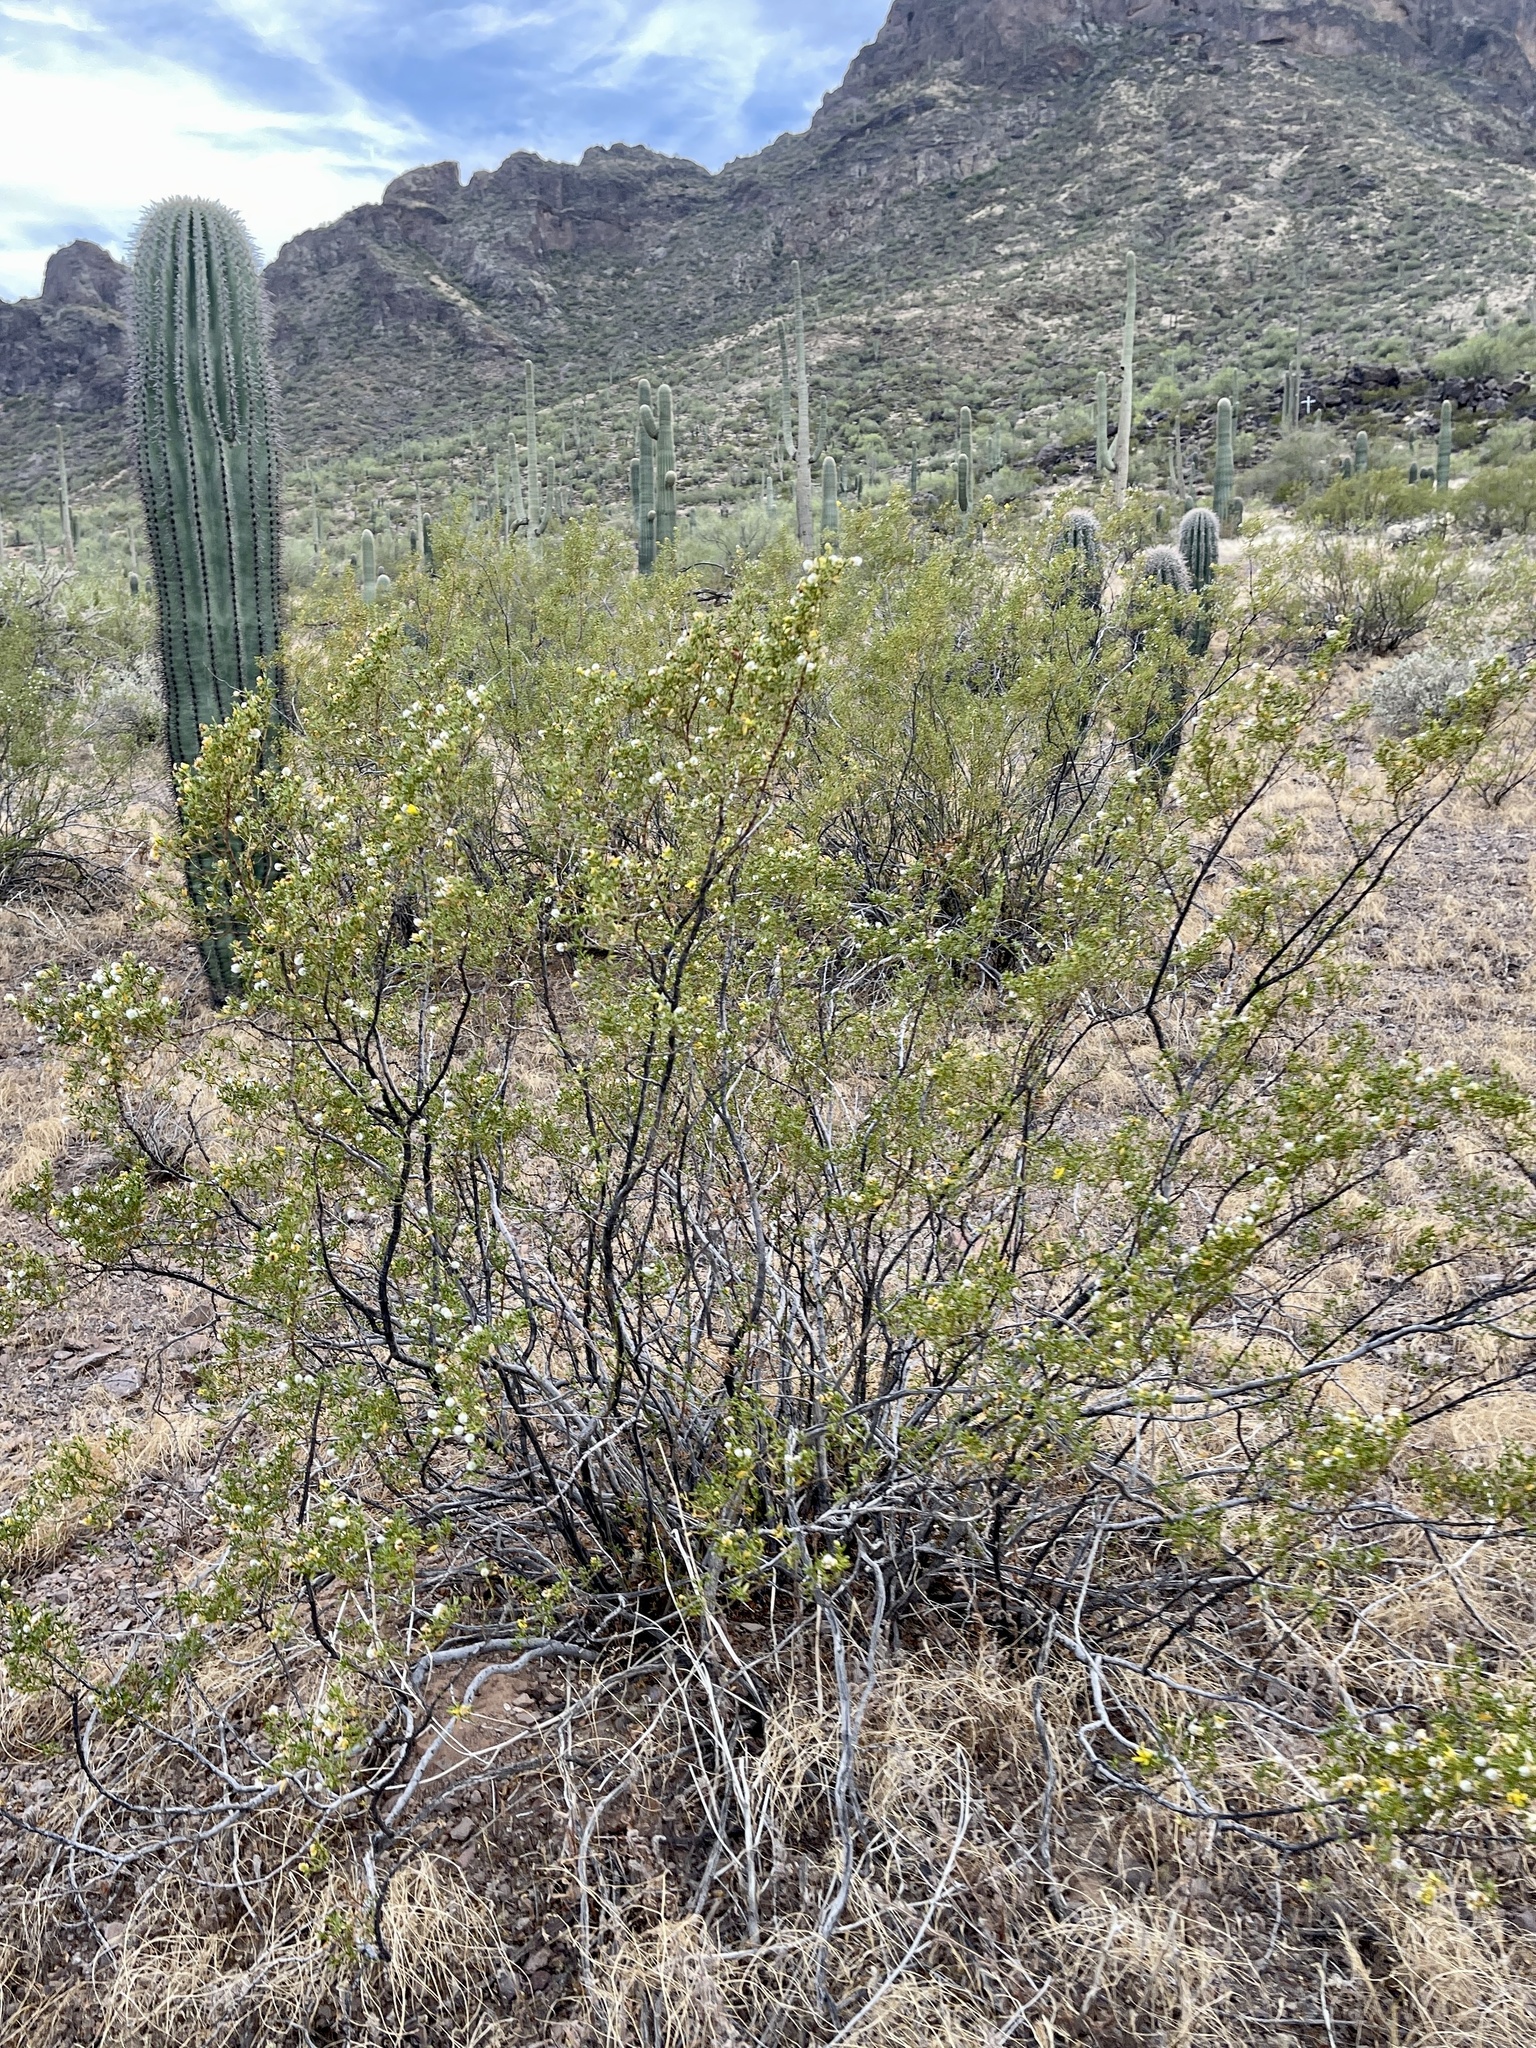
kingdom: Plantae
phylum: Tracheophyta
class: Magnoliopsida
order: Zygophyllales
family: Zygophyllaceae
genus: Larrea
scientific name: Larrea tridentata
